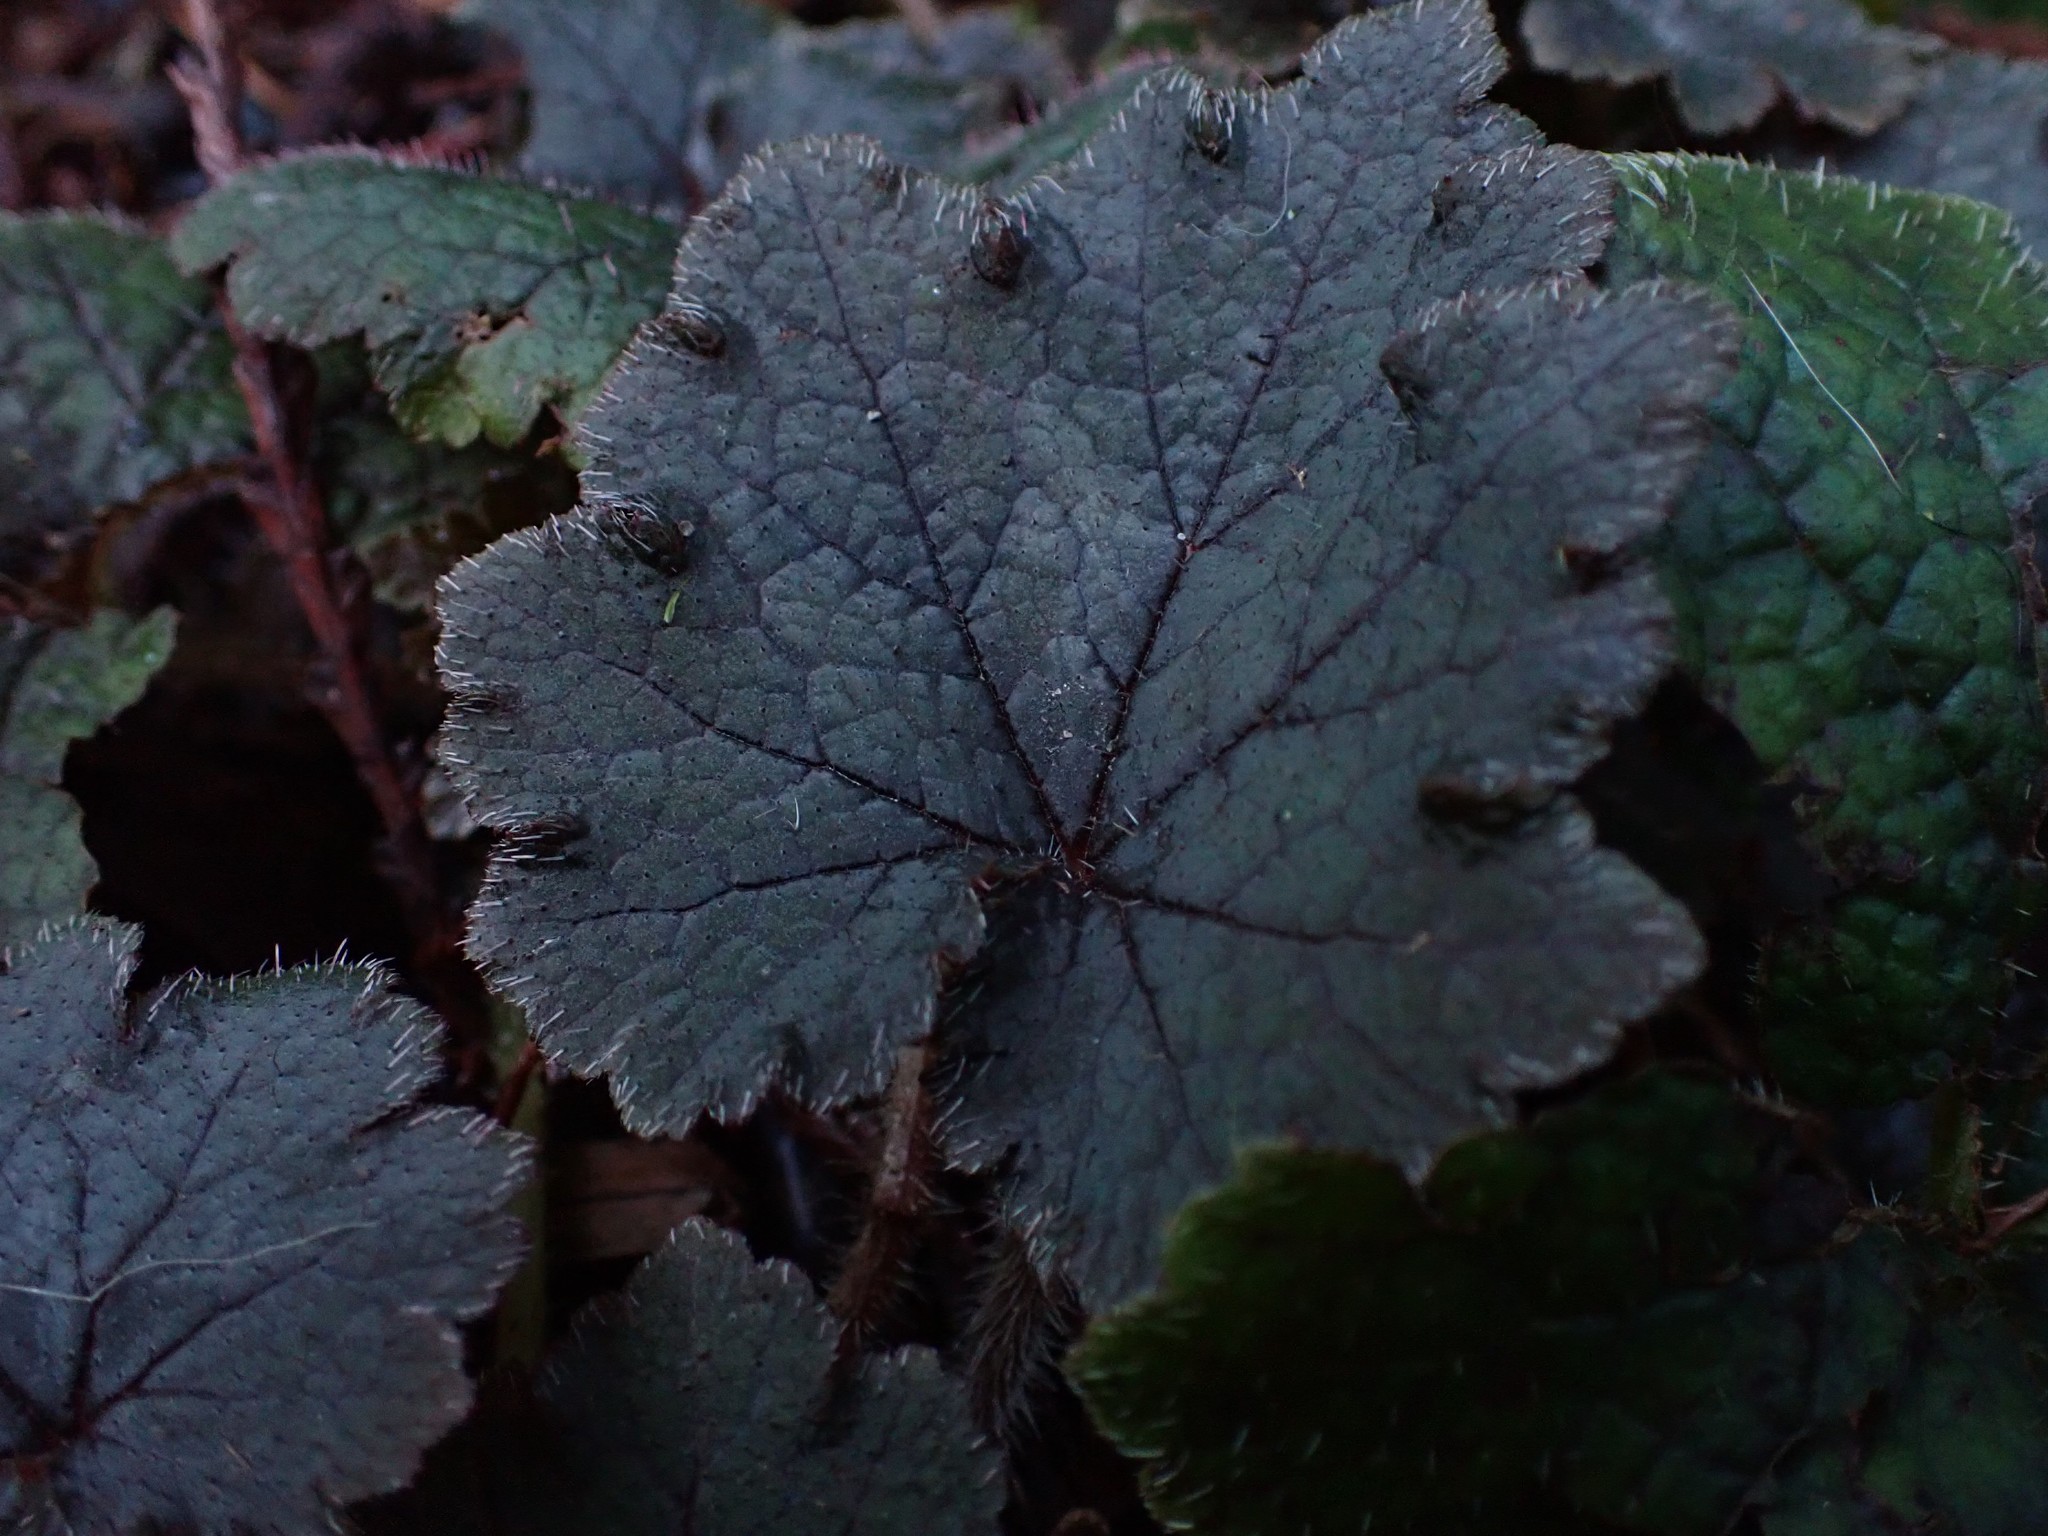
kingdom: Plantae
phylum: Tracheophyta
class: Magnoliopsida
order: Saxifragales
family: Saxifragaceae
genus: Tellima
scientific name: Tellima grandiflora
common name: Fringecups
